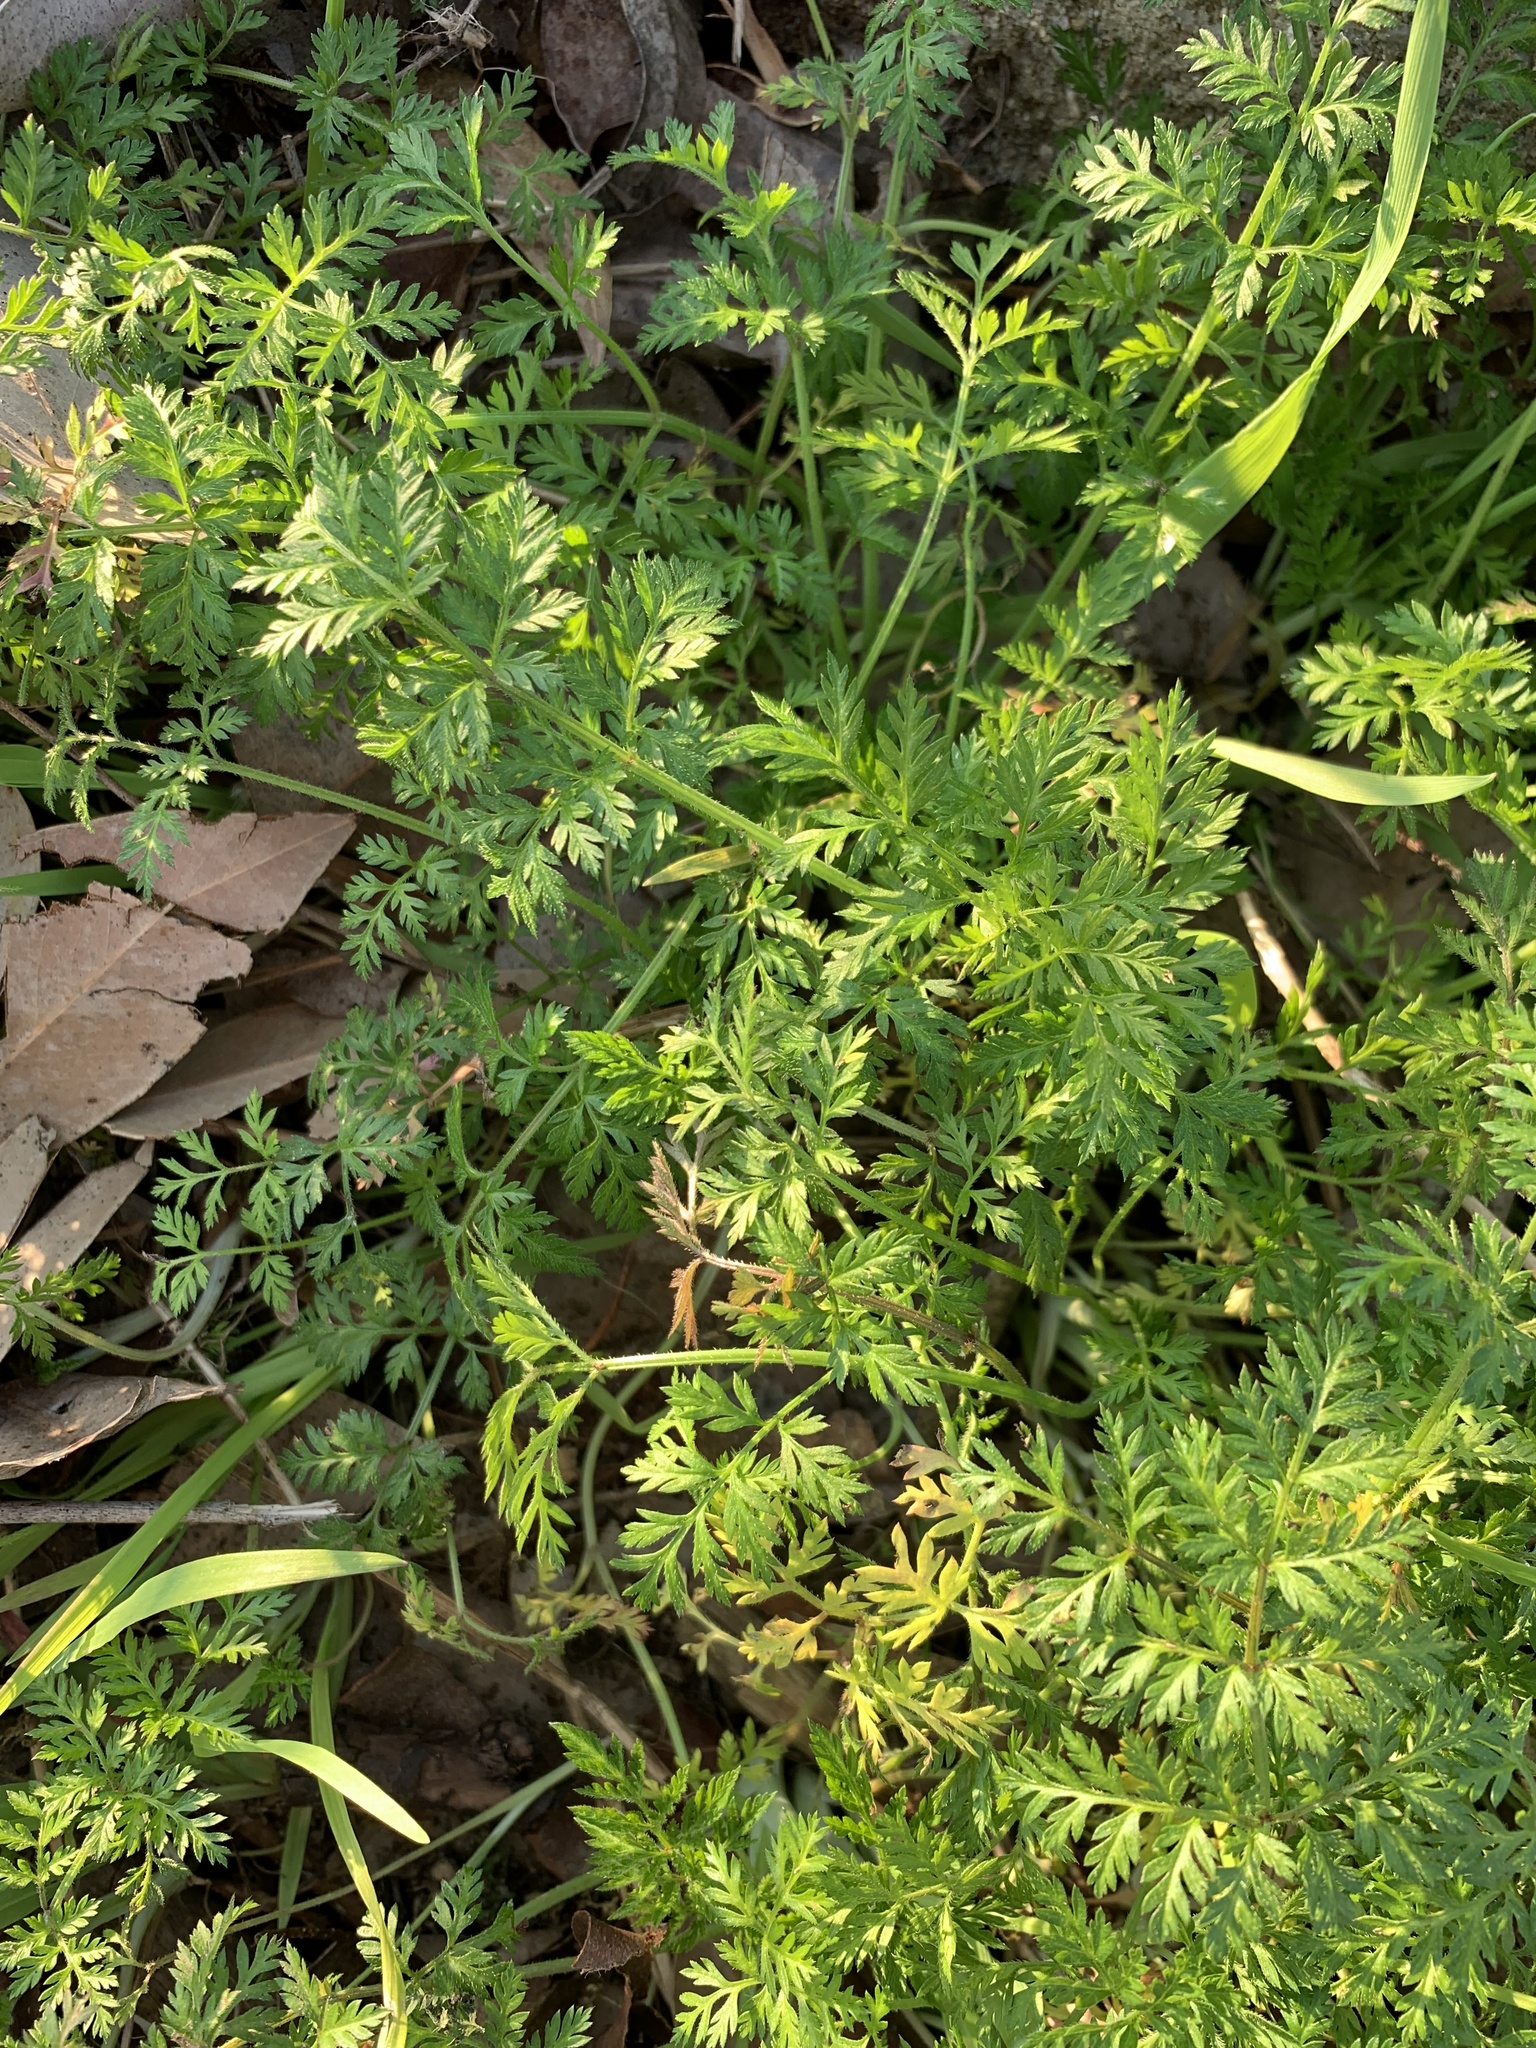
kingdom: Plantae
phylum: Tracheophyta
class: Magnoliopsida
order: Apiales
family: Apiaceae
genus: Torilis
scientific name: Torilis africana
